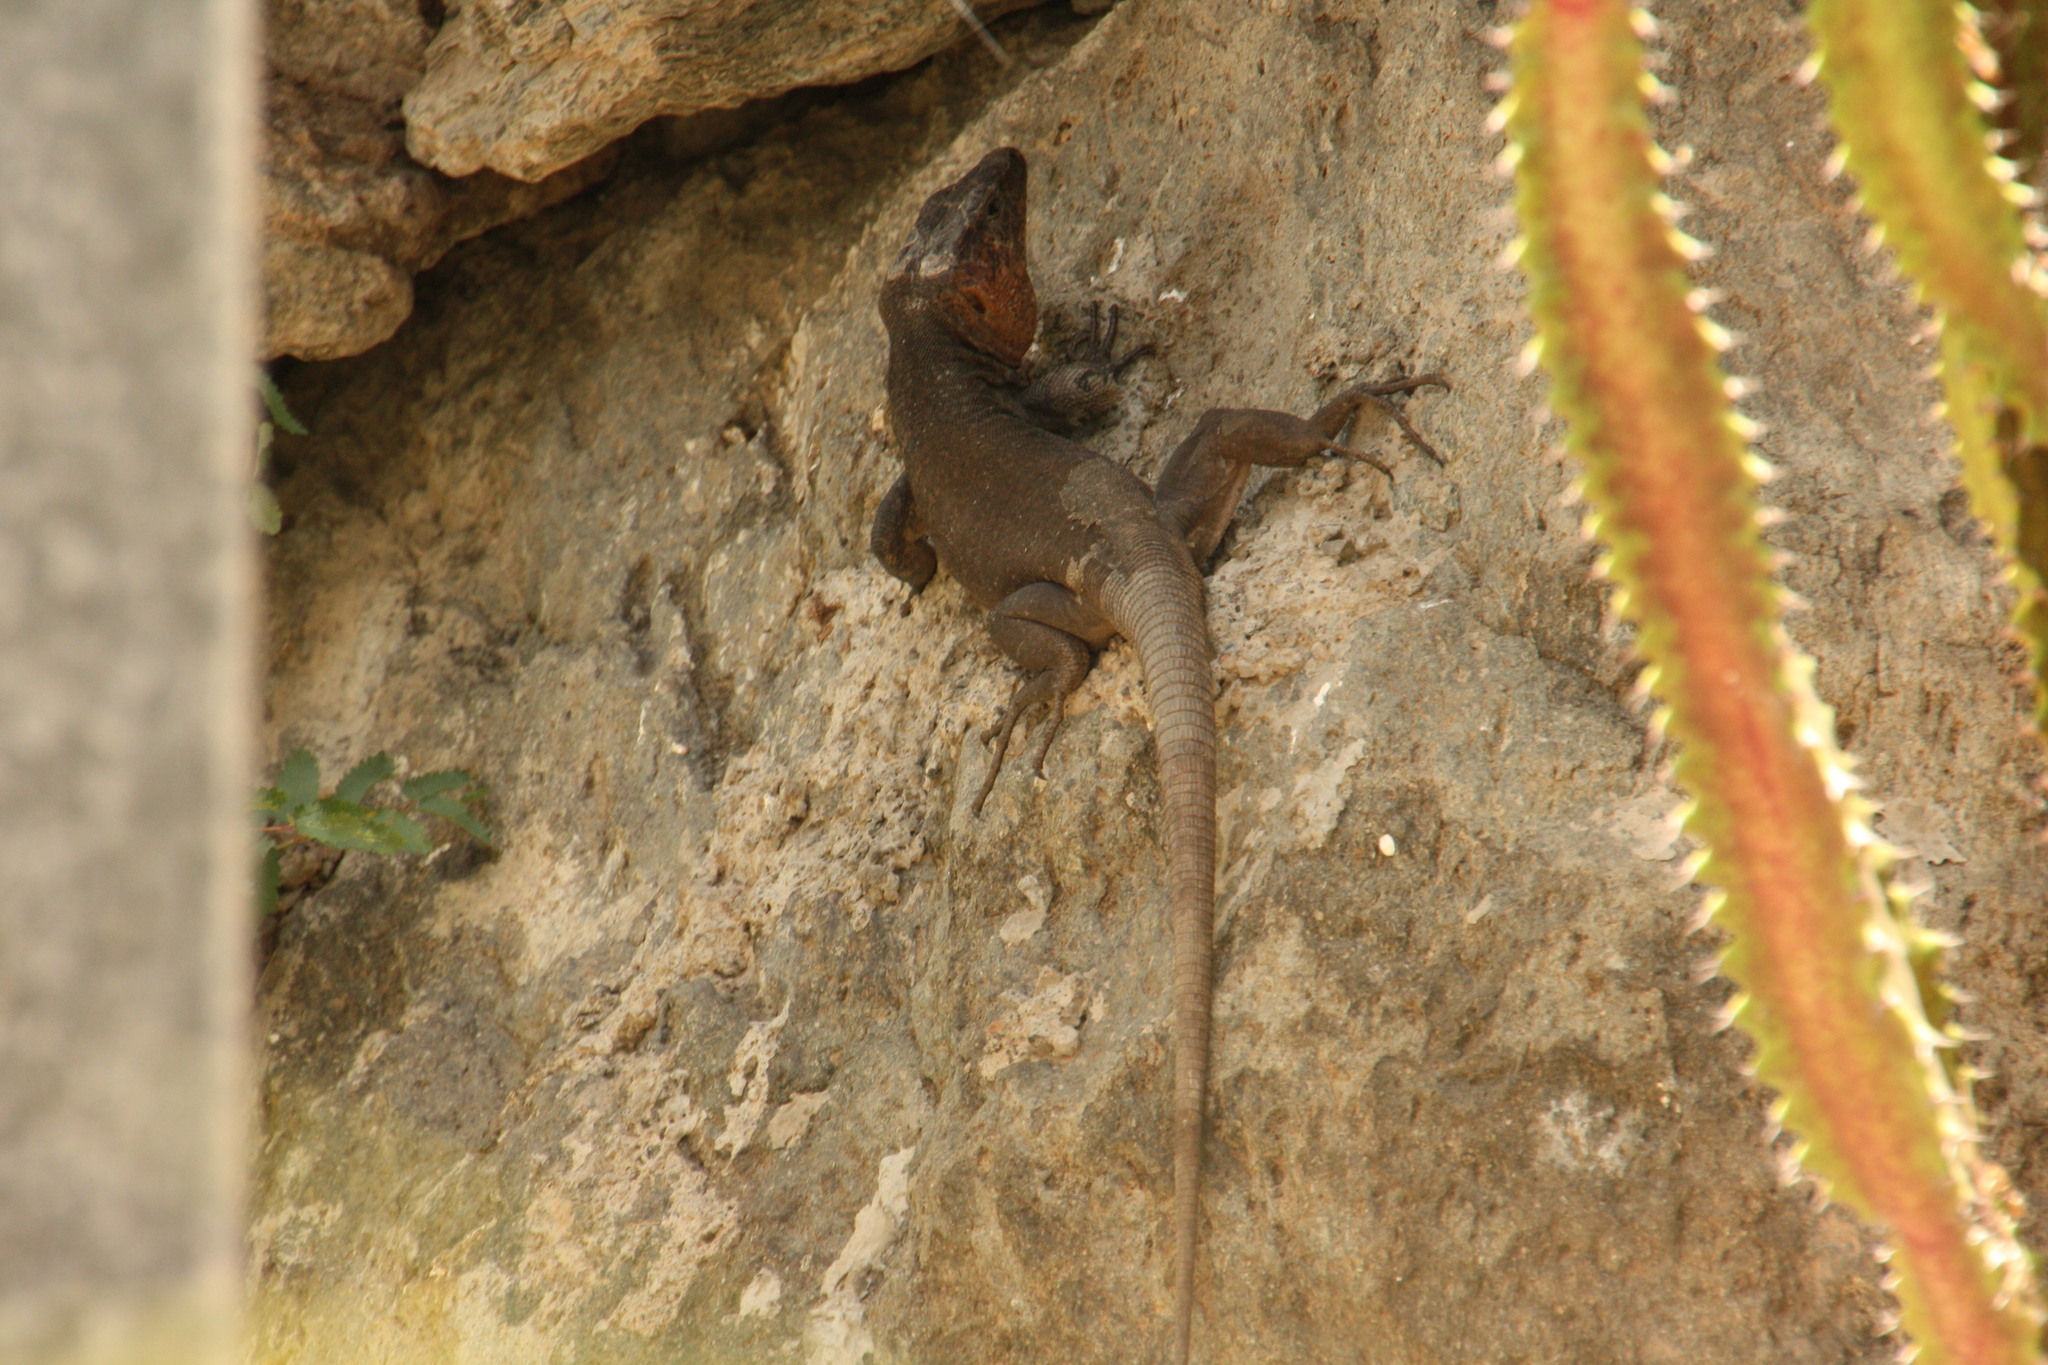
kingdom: Animalia
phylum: Chordata
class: Squamata
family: Lacertidae
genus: Gallotia
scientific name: Gallotia stehlini
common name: Gran canaria giant lizard
